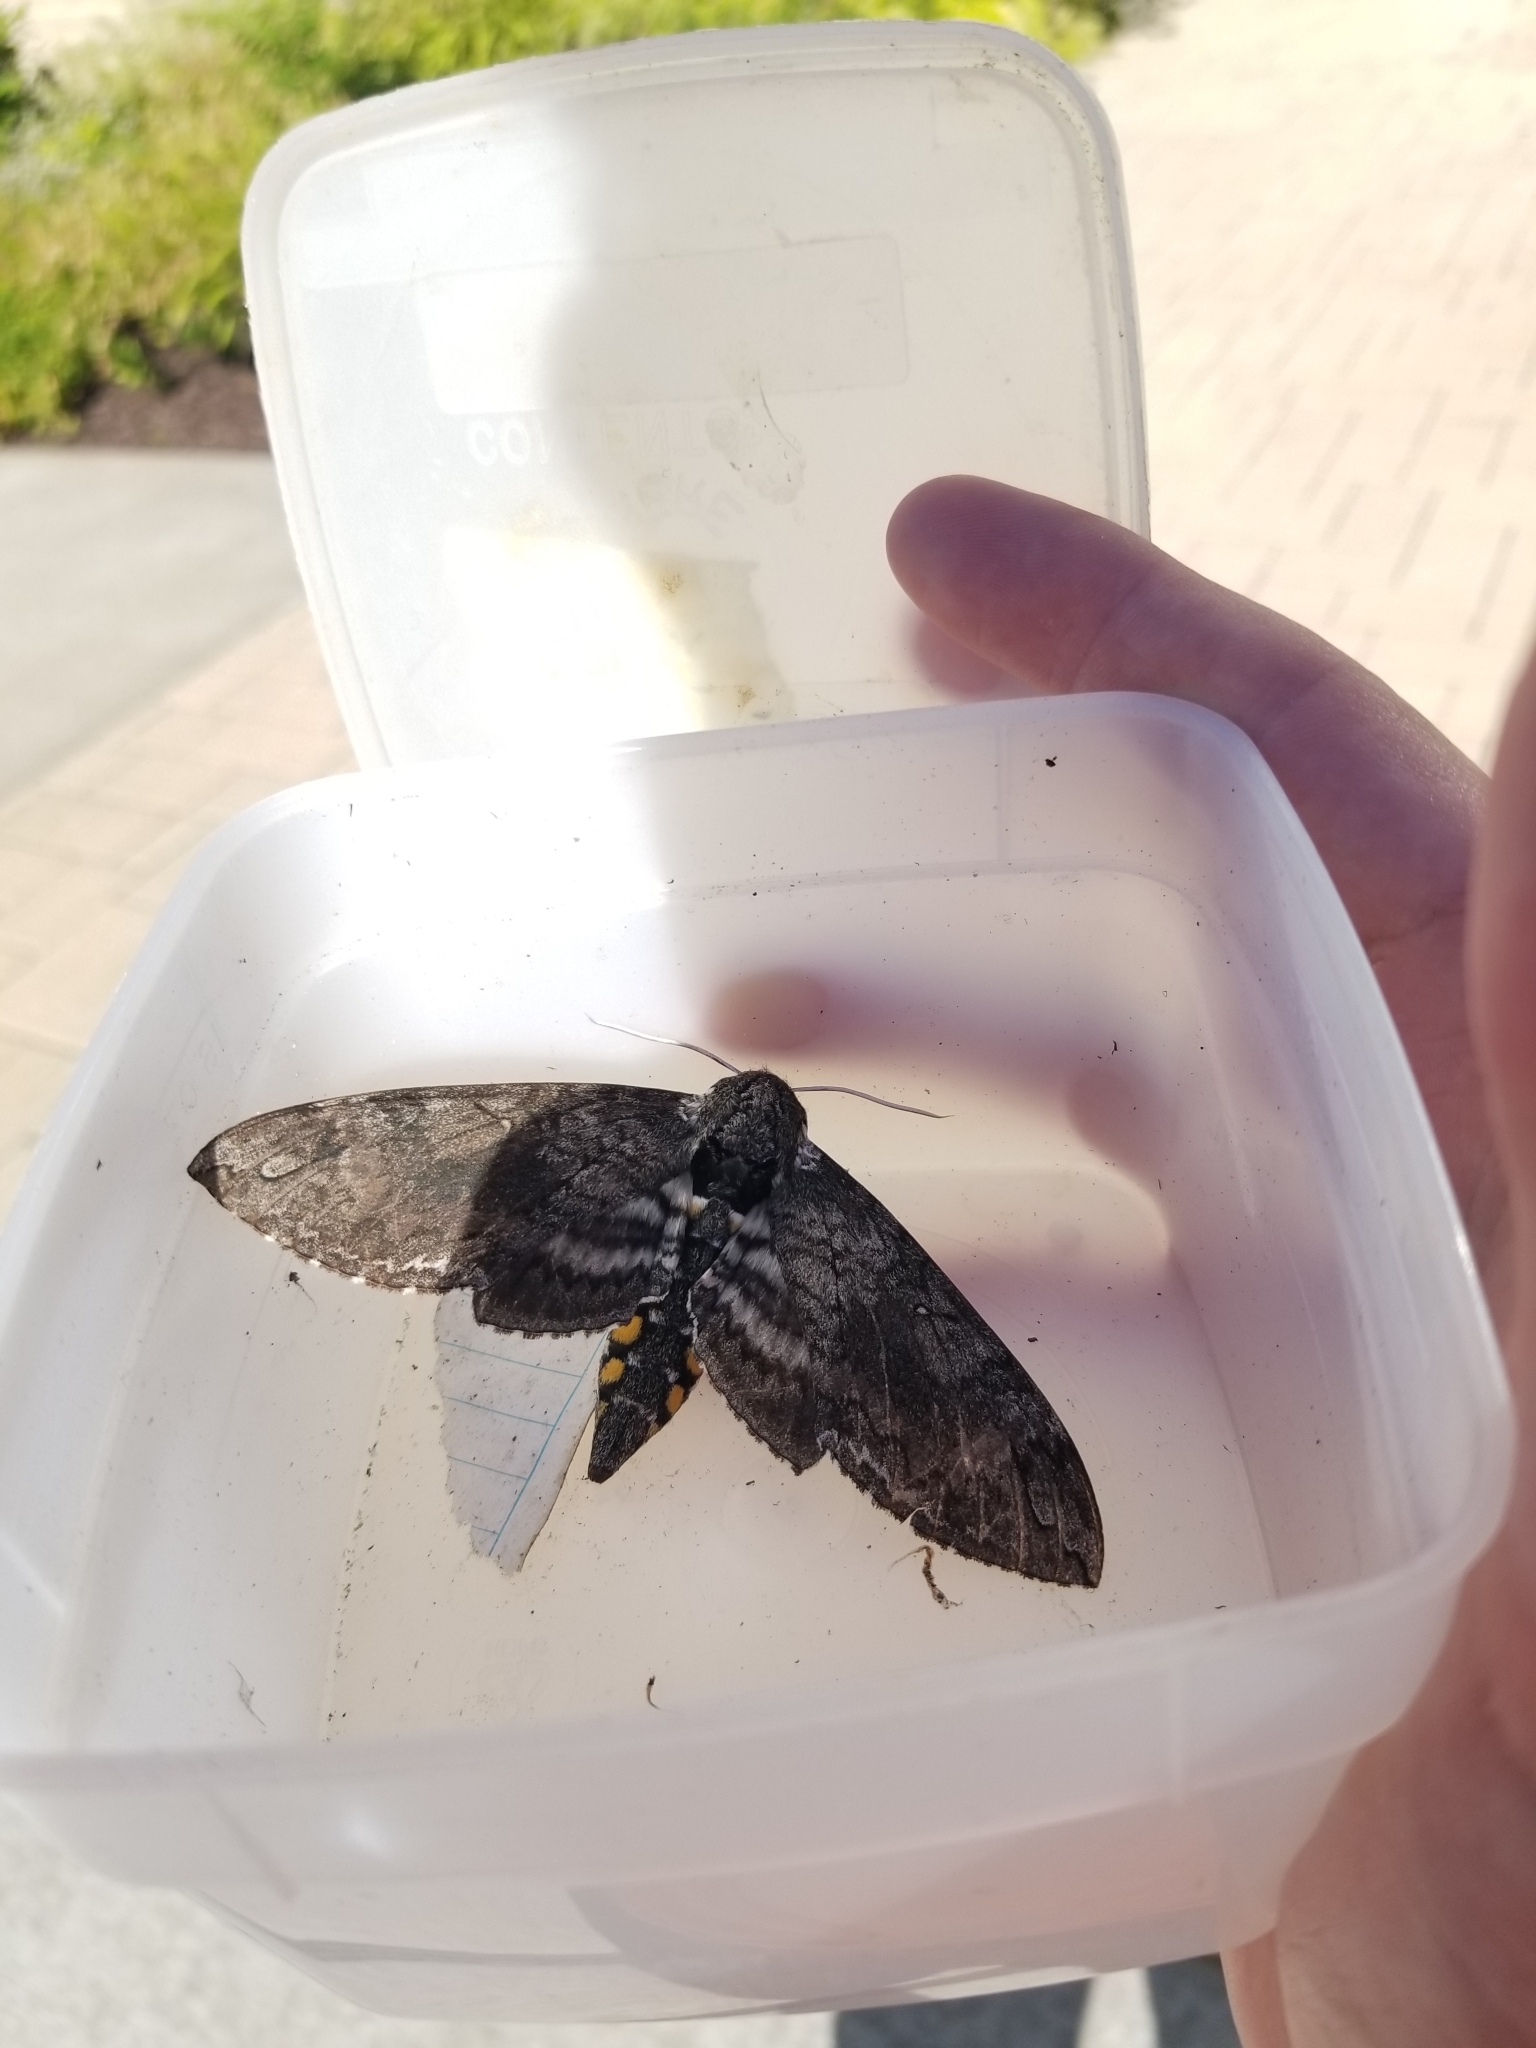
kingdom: Animalia
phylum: Arthropoda
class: Insecta
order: Lepidoptera
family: Sphingidae
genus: Manduca
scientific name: Manduca sexta
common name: Carolina sphinx
